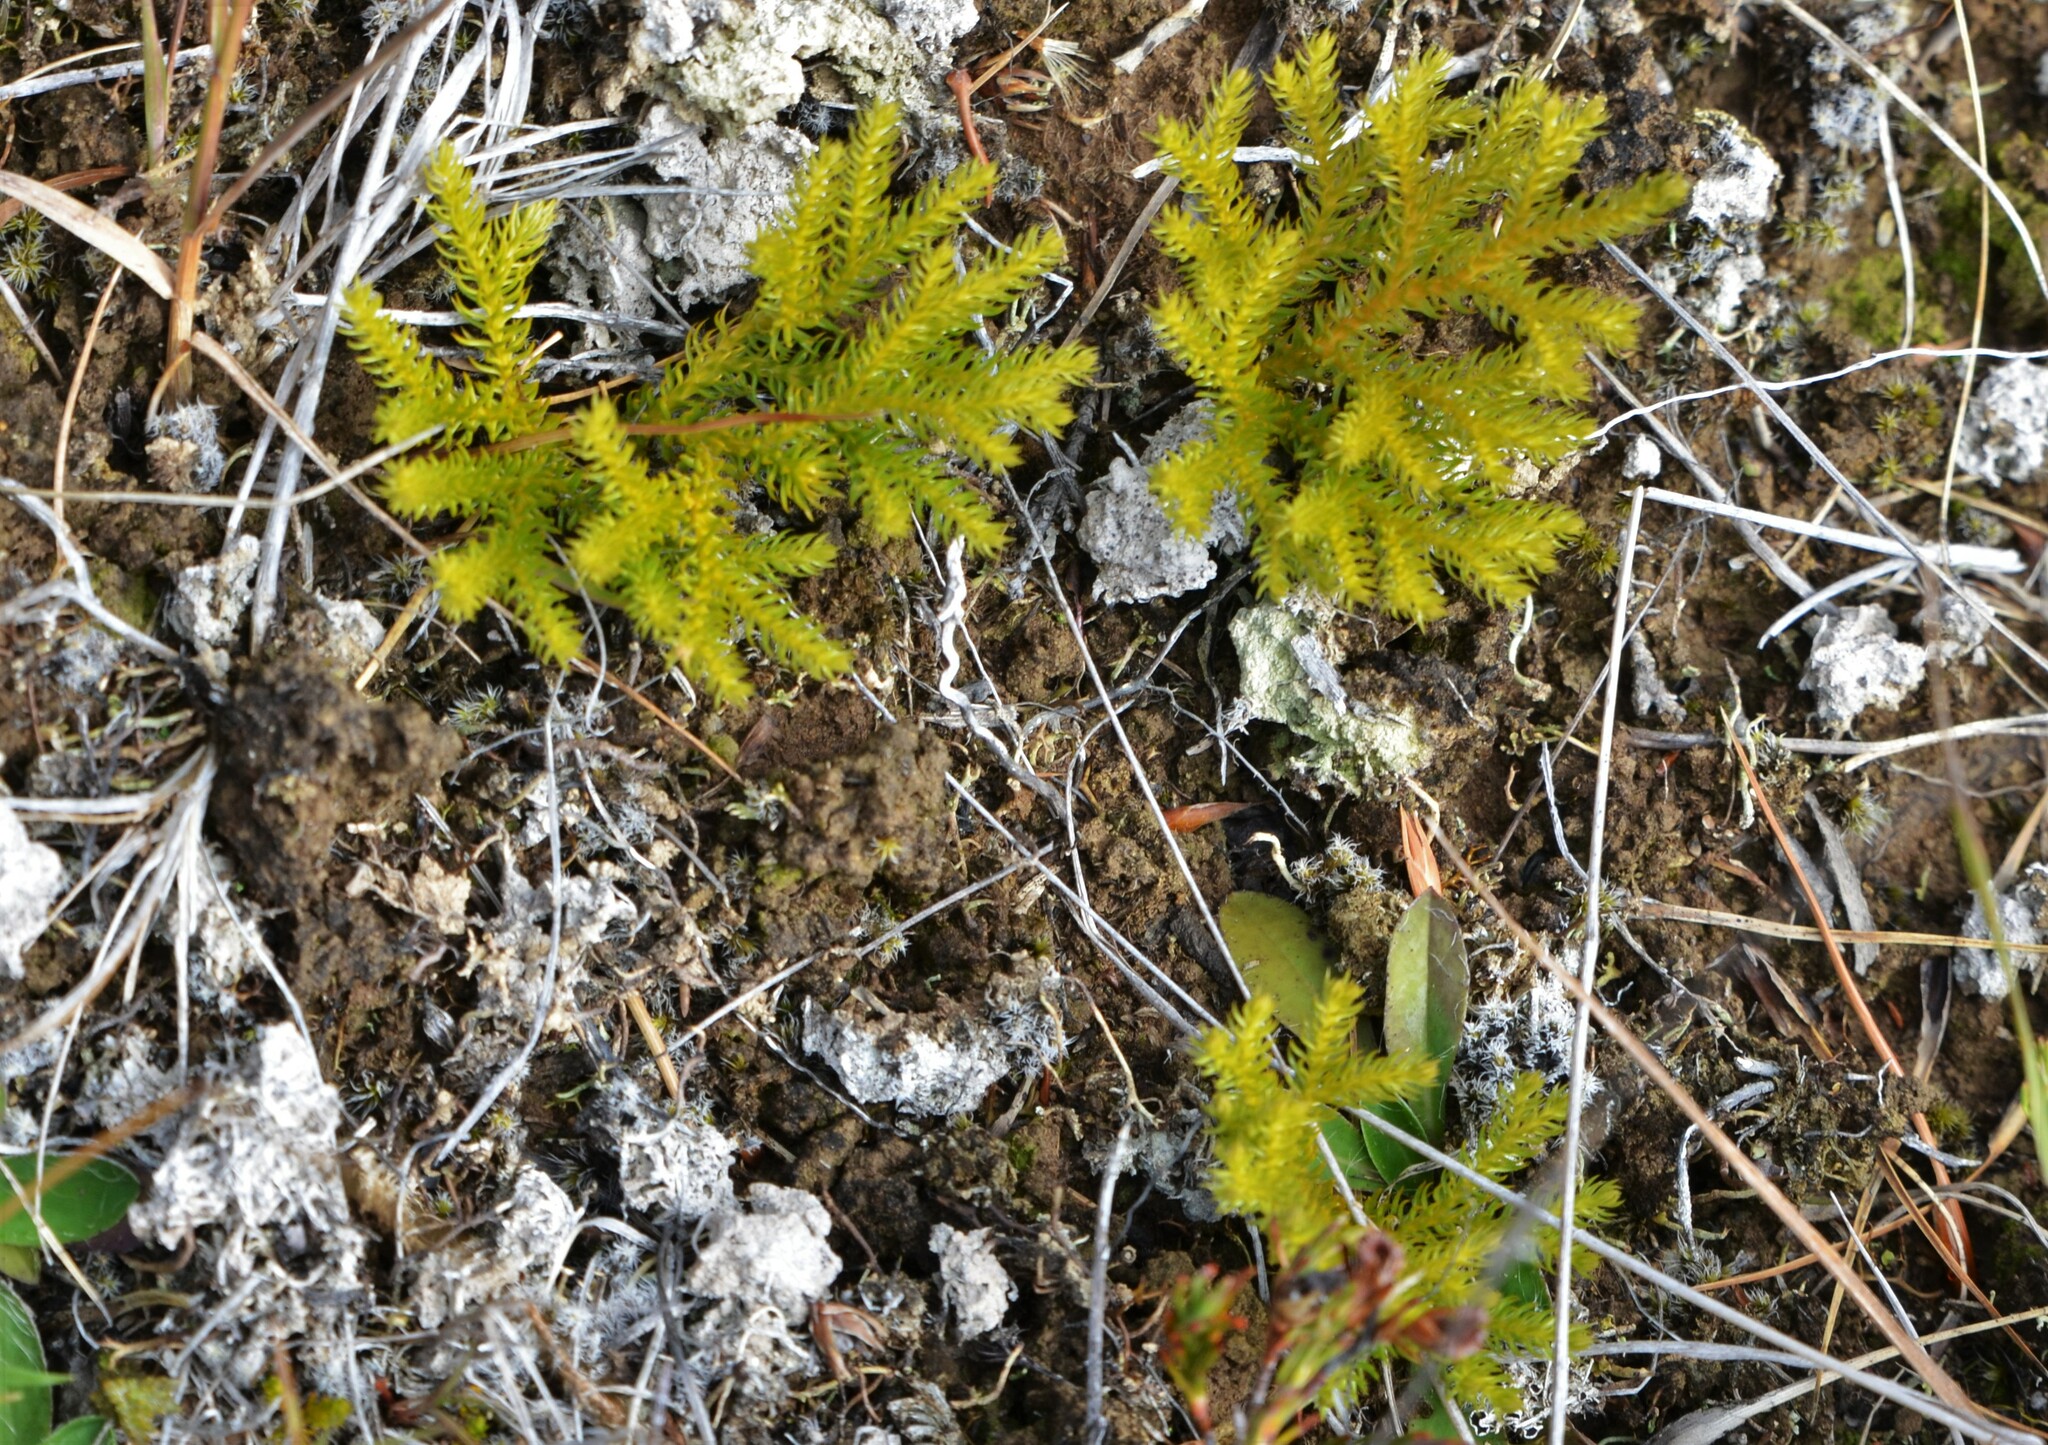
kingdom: Plantae
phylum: Tracheophyta
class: Lycopodiopsida
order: Lycopodiales
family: Lycopodiaceae
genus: Austrolycopodium
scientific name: Austrolycopodium fastigiatum
